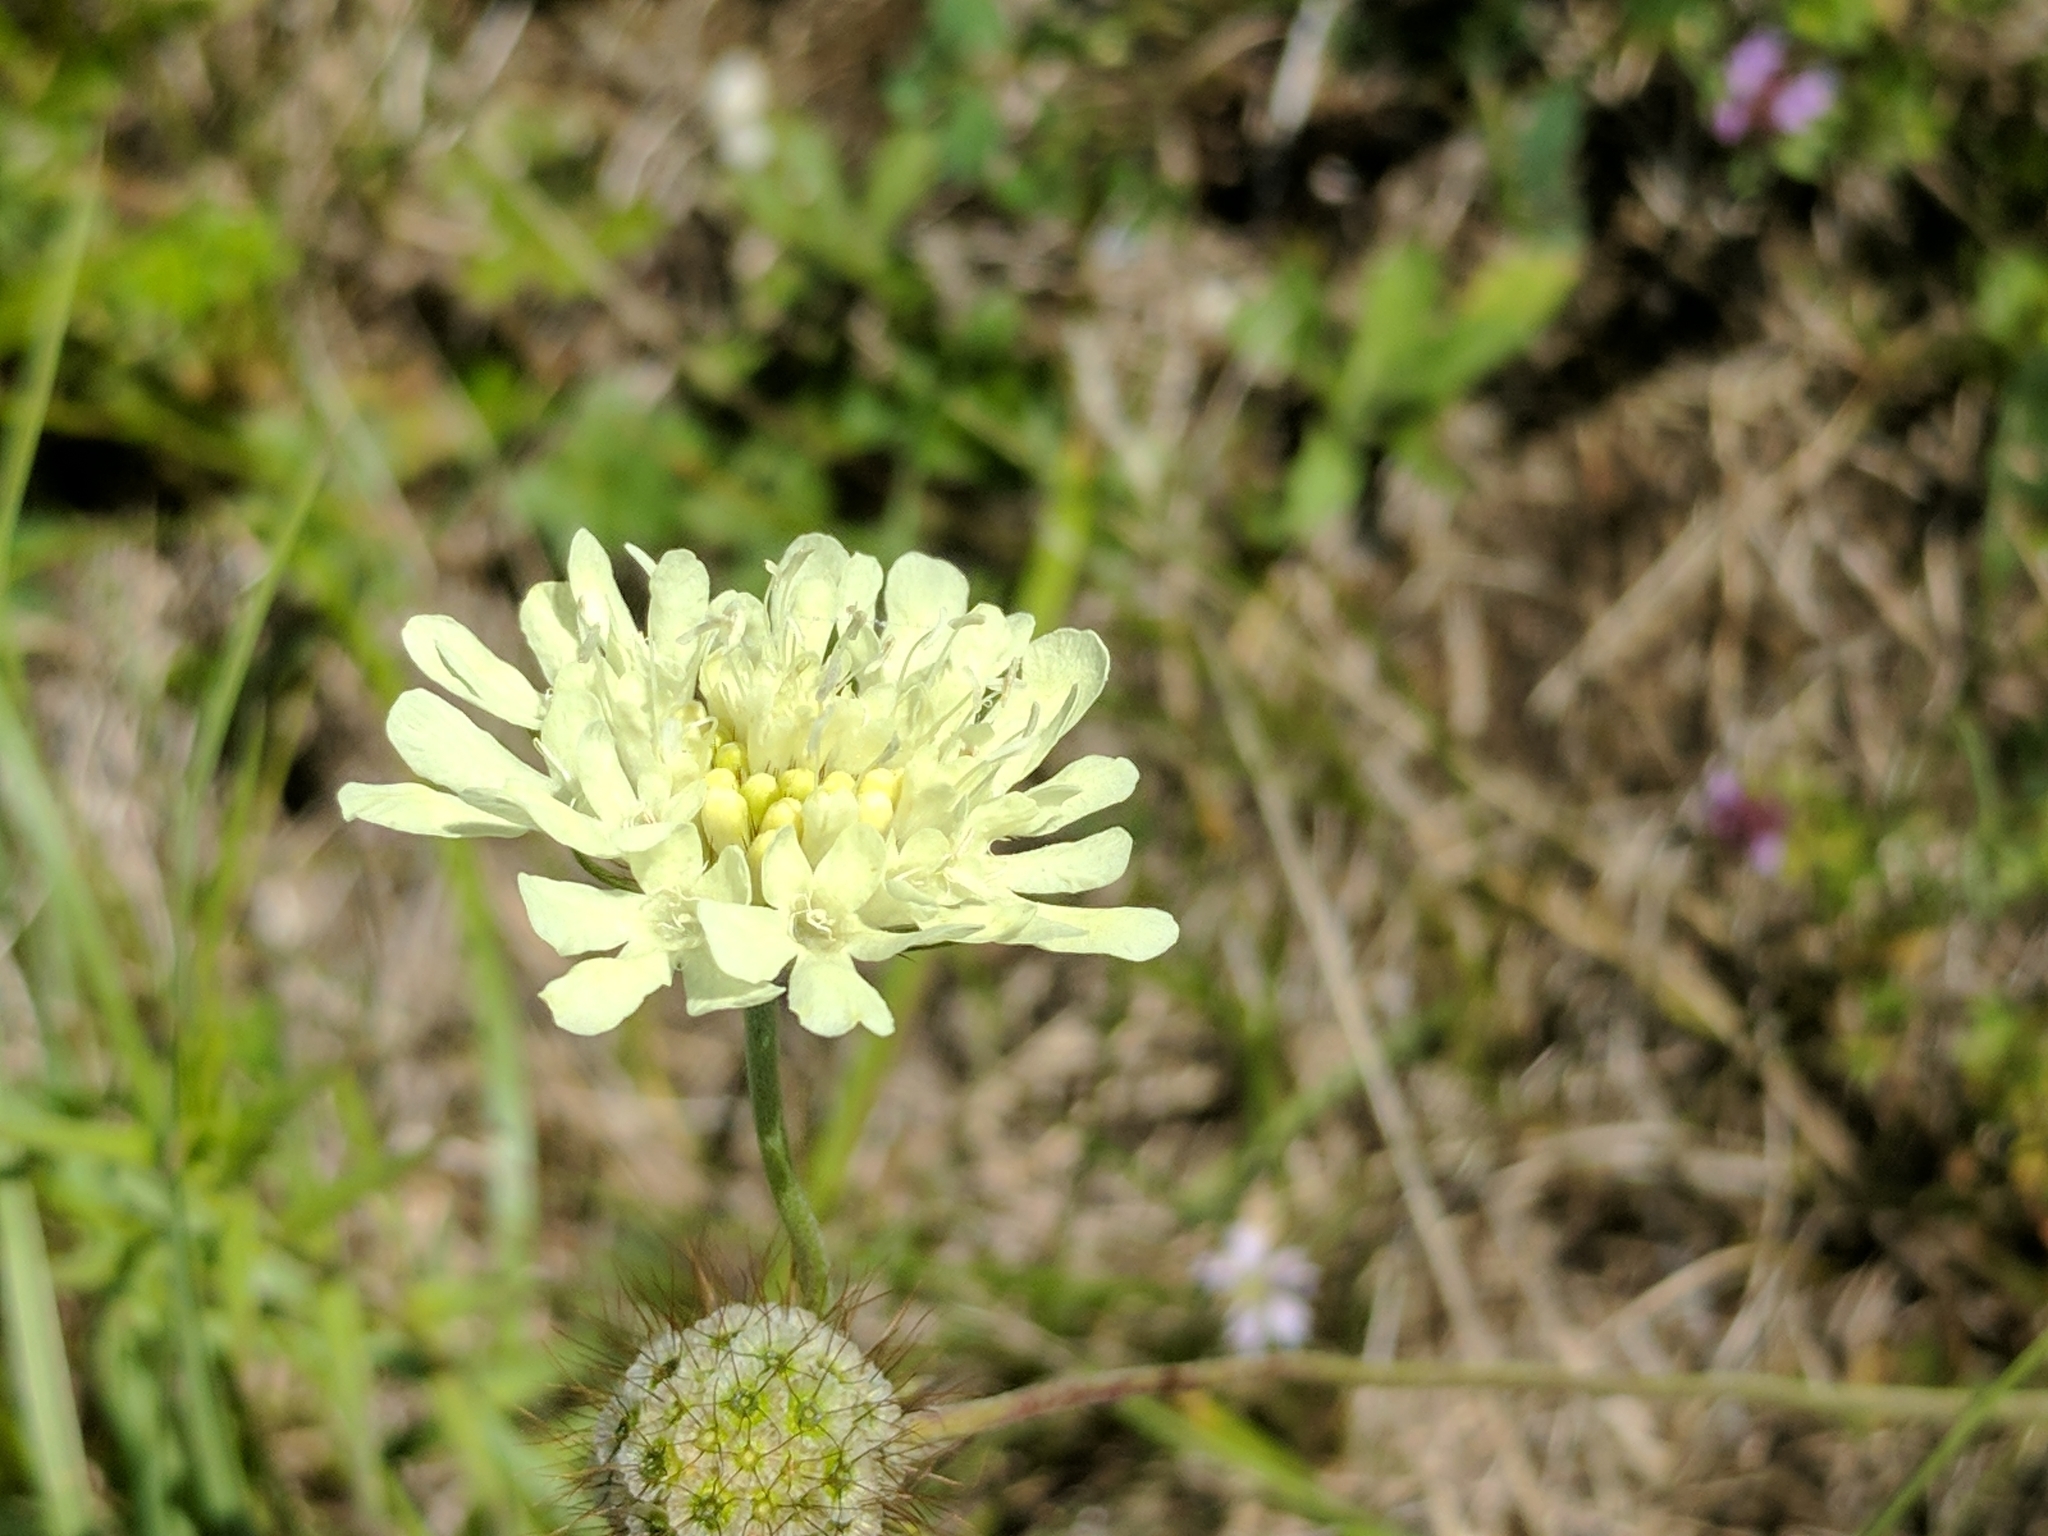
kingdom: Plantae
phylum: Tracheophyta
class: Magnoliopsida
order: Dipsacales
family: Caprifoliaceae
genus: Scabiosa
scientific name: Scabiosa ochroleuca
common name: Cream pincushions
